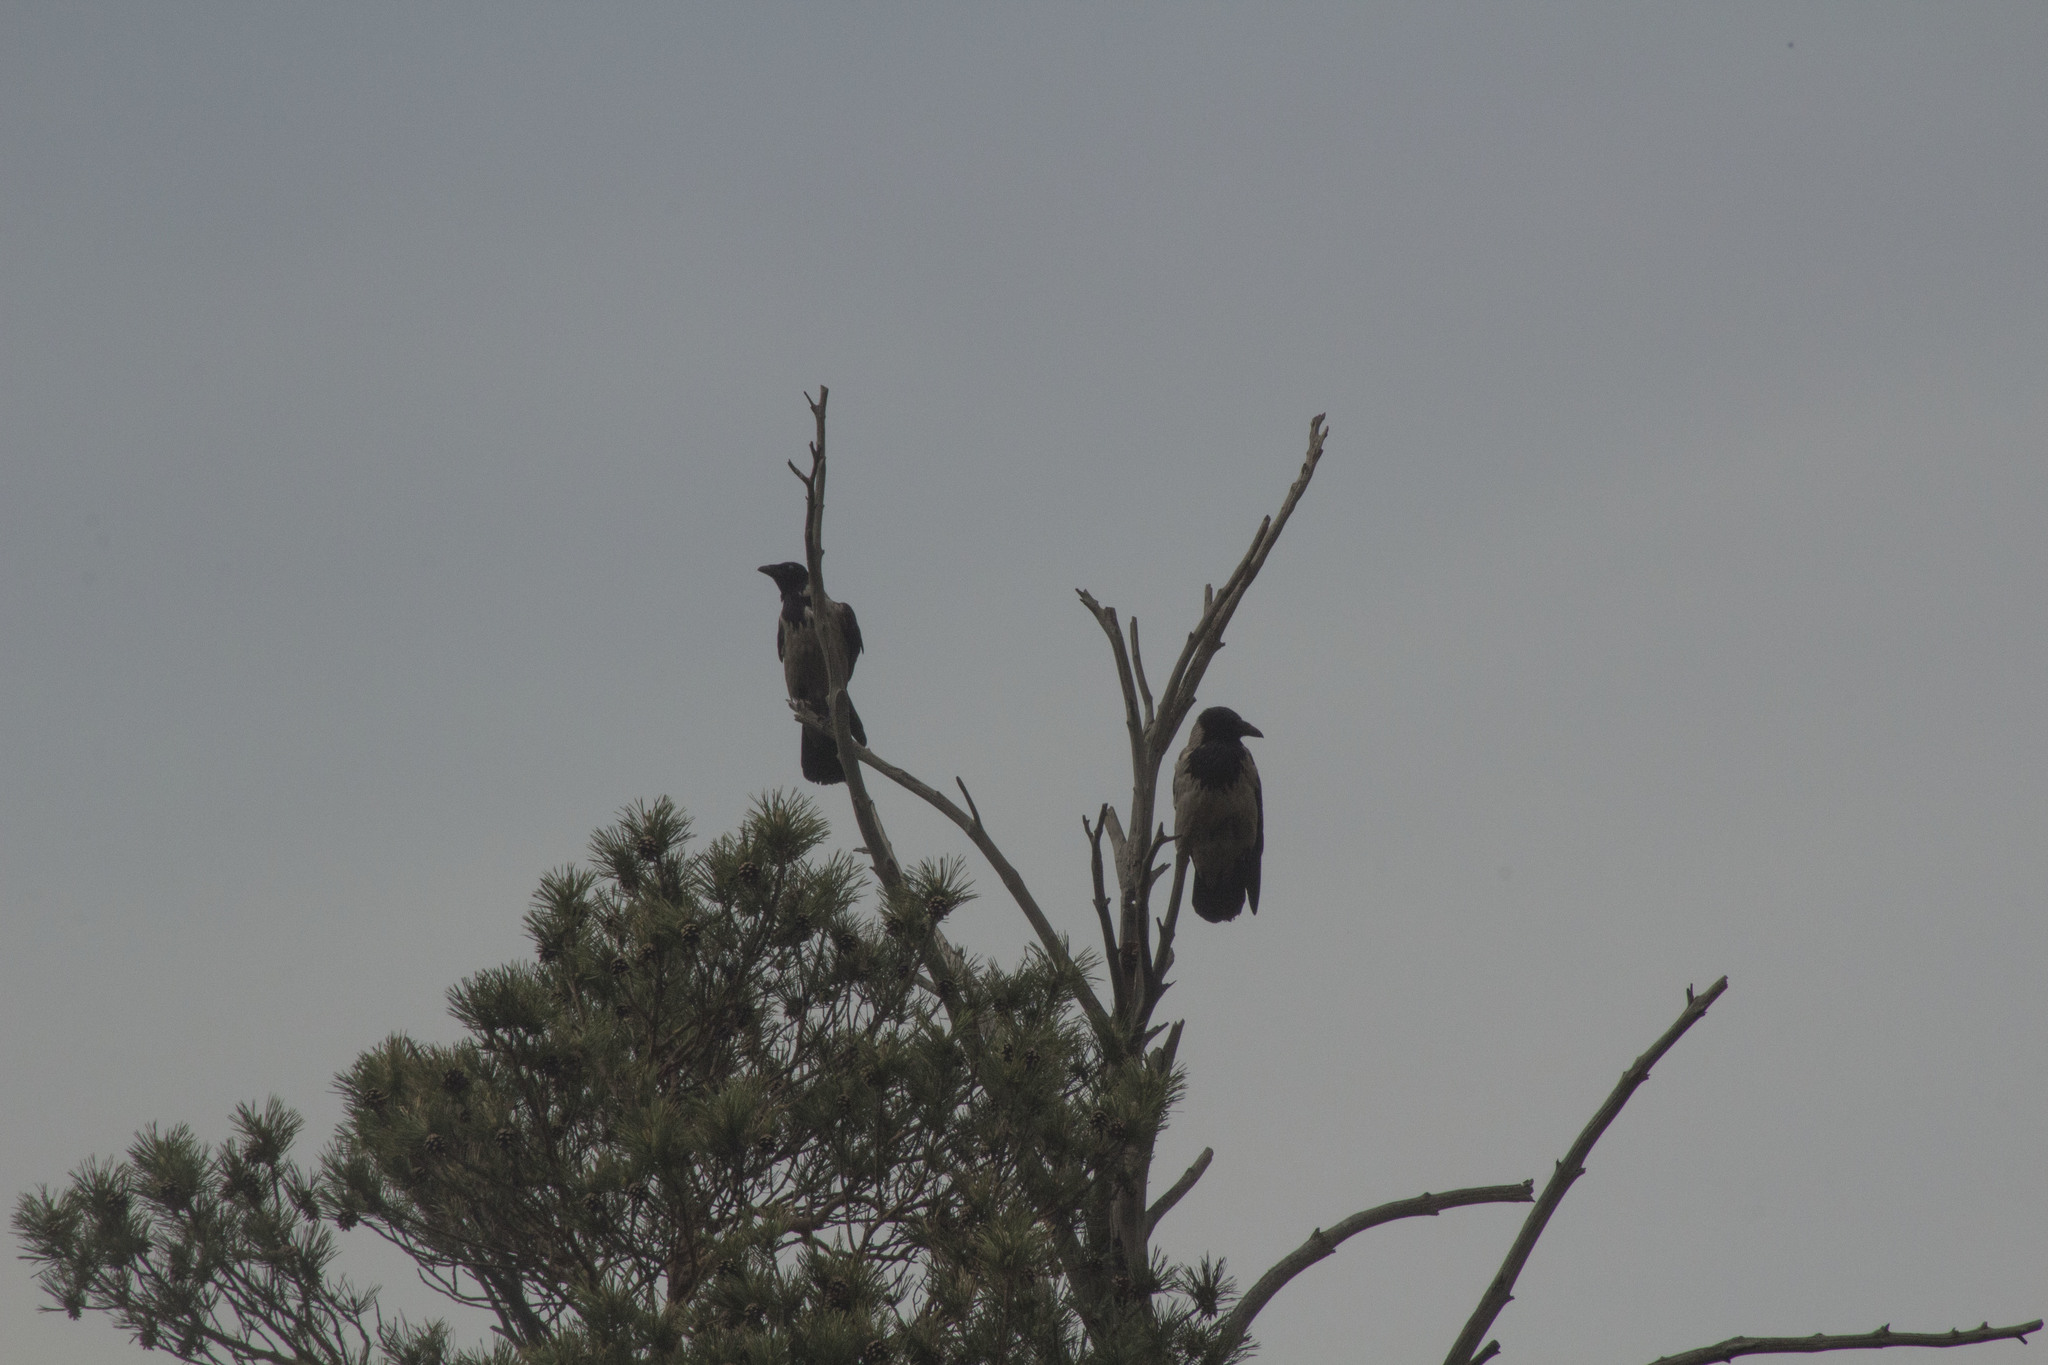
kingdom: Animalia
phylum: Chordata
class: Aves
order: Passeriformes
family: Corvidae
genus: Corvus
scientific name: Corvus cornix
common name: Hooded crow
